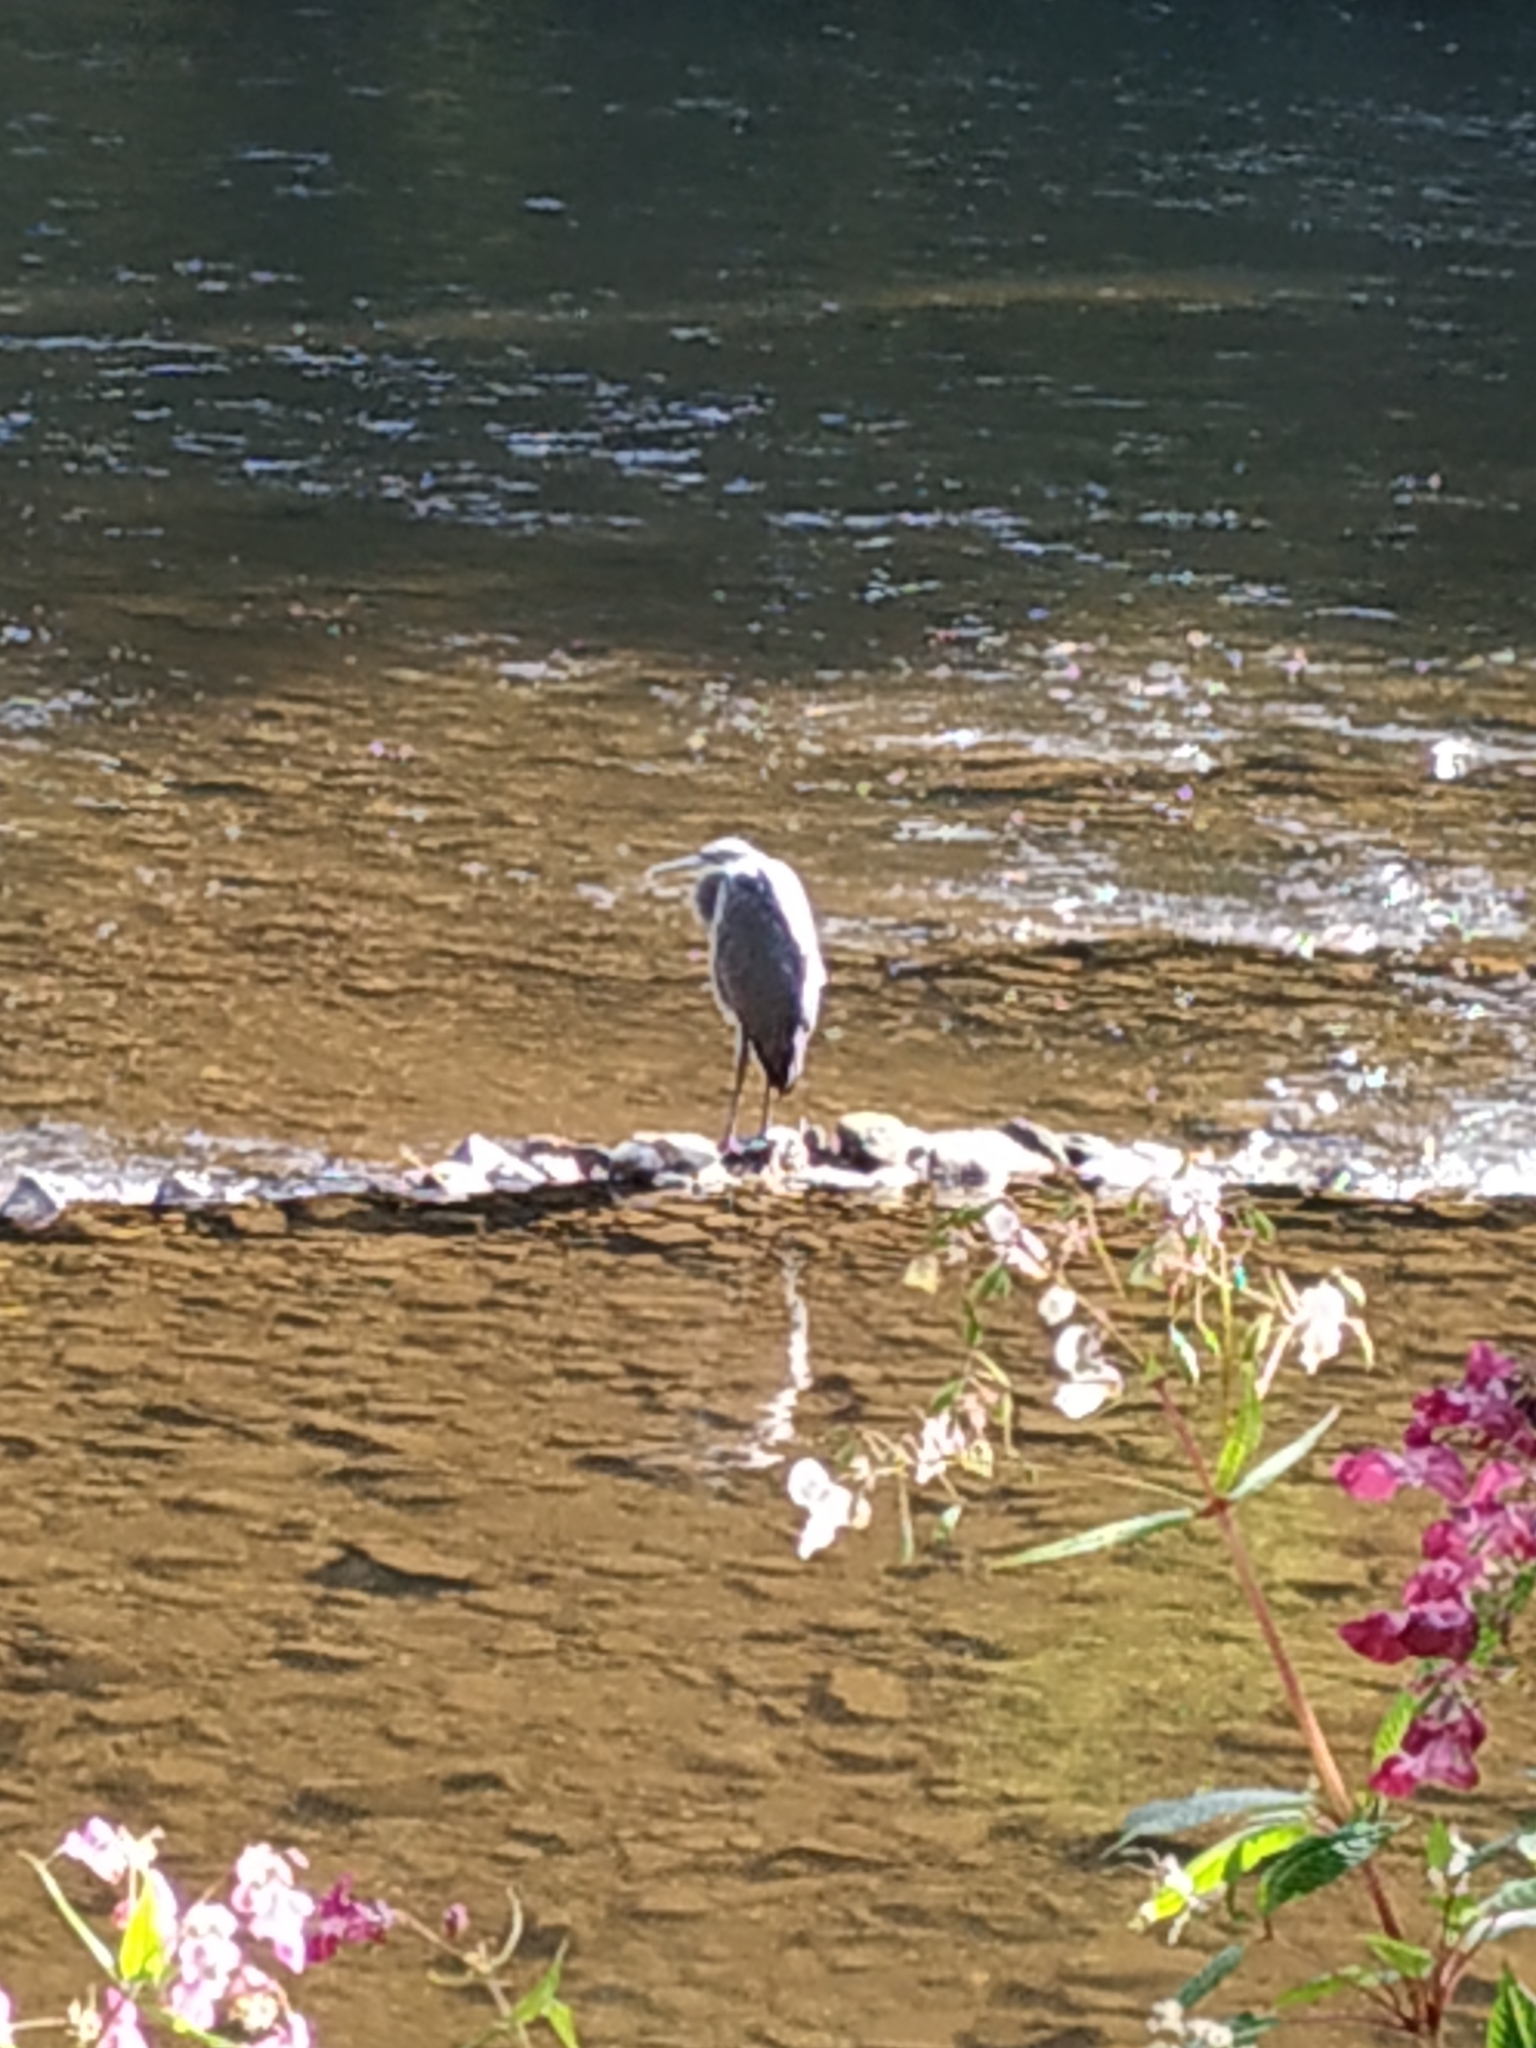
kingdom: Animalia
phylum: Chordata
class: Aves
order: Pelecaniformes
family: Ardeidae
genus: Ardea
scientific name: Ardea cinerea
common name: Grey heron
